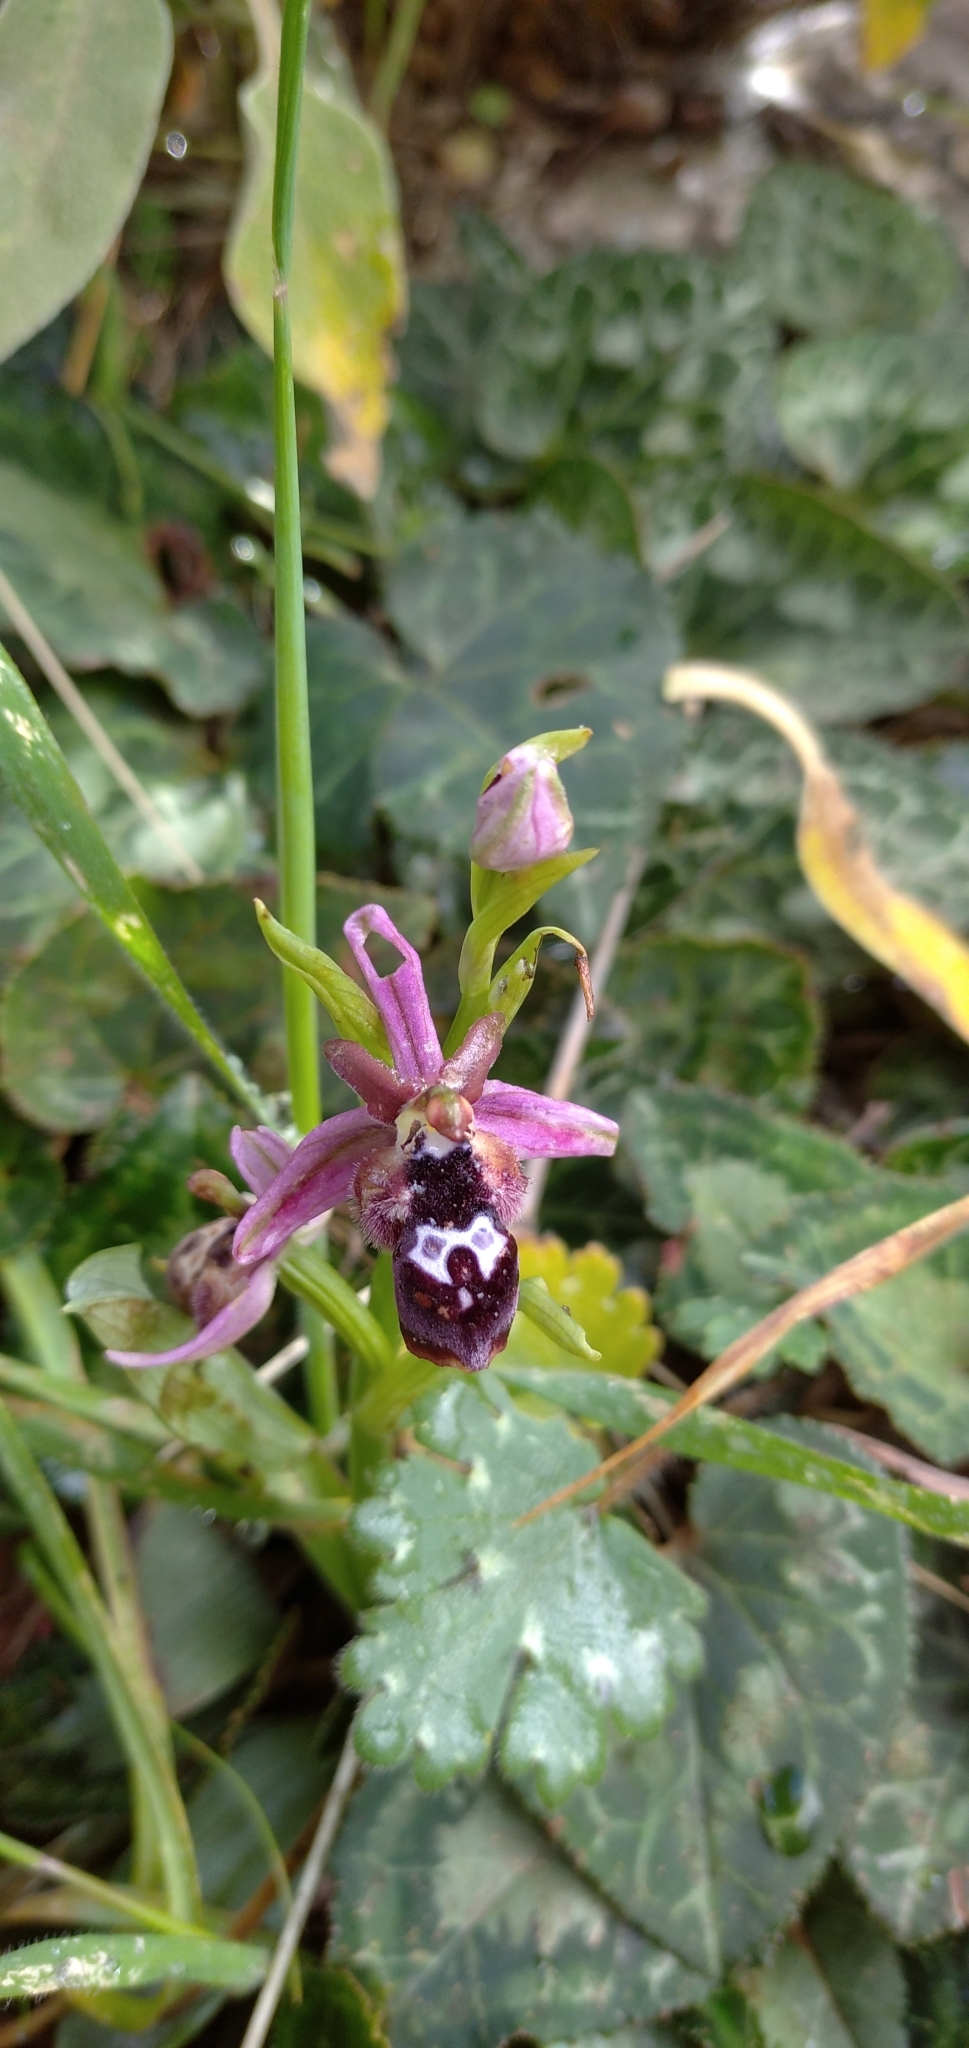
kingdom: Plantae
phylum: Tracheophyta
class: Liliopsida
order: Asparagales
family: Orchidaceae
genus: Ophrys
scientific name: Ophrys reinholdii
